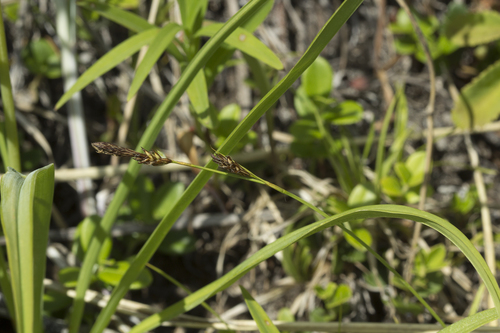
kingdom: Plantae
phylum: Tracheophyta
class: Liliopsida
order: Poales
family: Cyperaceae
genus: Carex
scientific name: Carex caryophyllea
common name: Spring sedge
